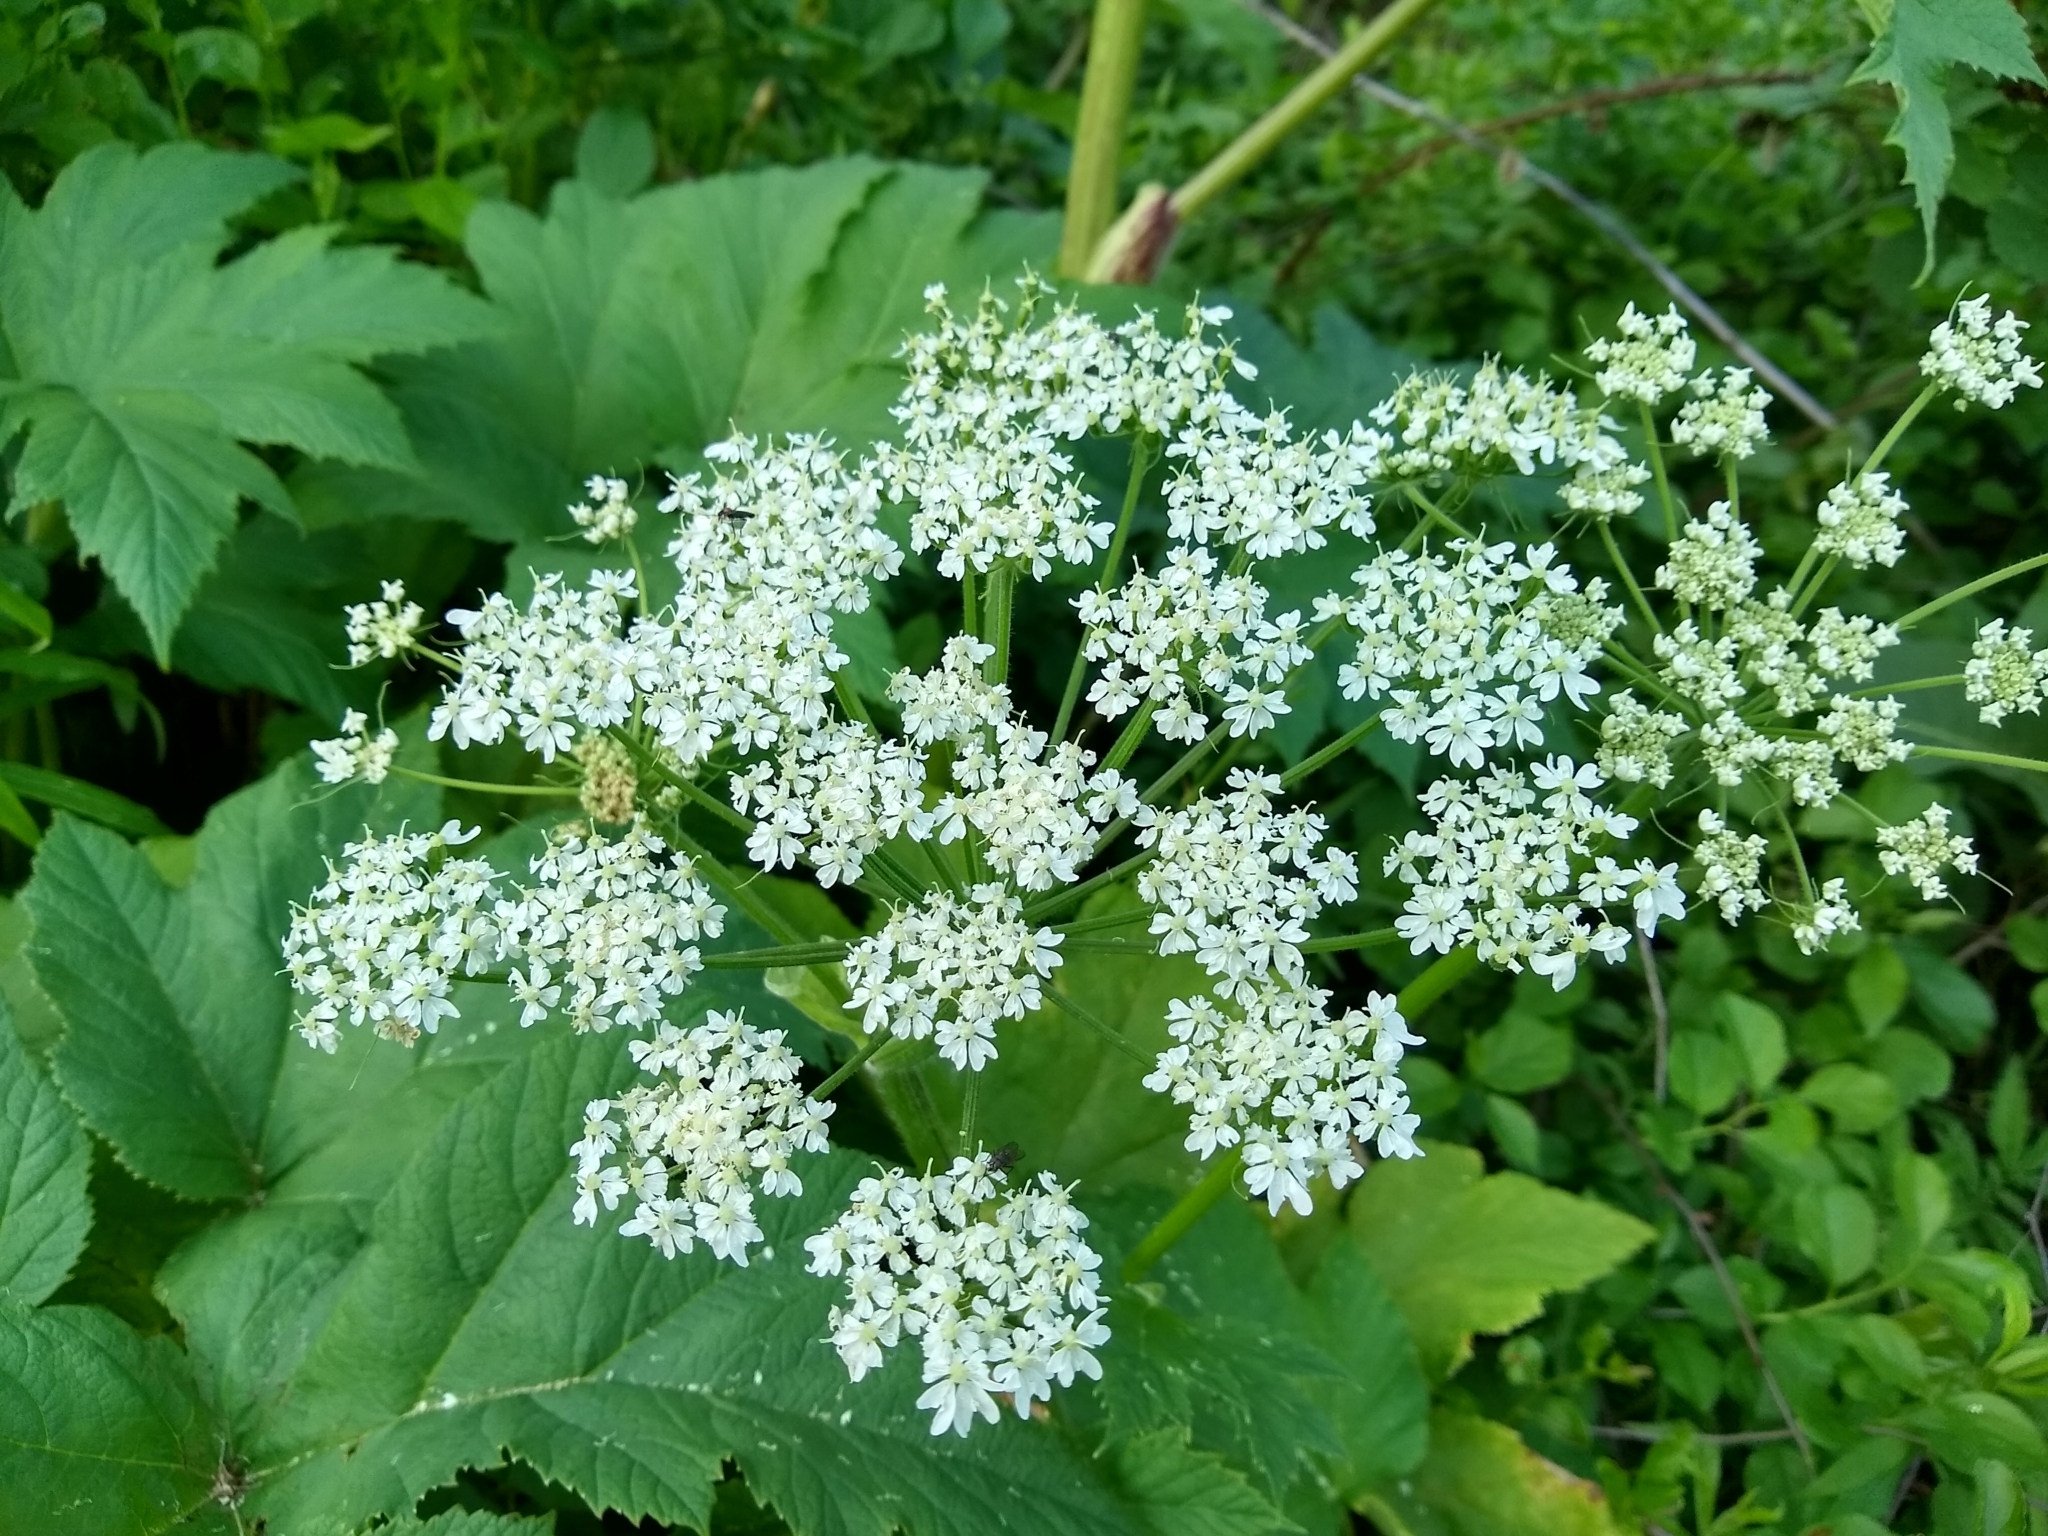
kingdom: Plantae
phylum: Tracheophyta
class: Magnoliopsida
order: Apiales
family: Apiaceae
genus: Heracleum
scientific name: Heracleum maximum
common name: American cow parsnip
